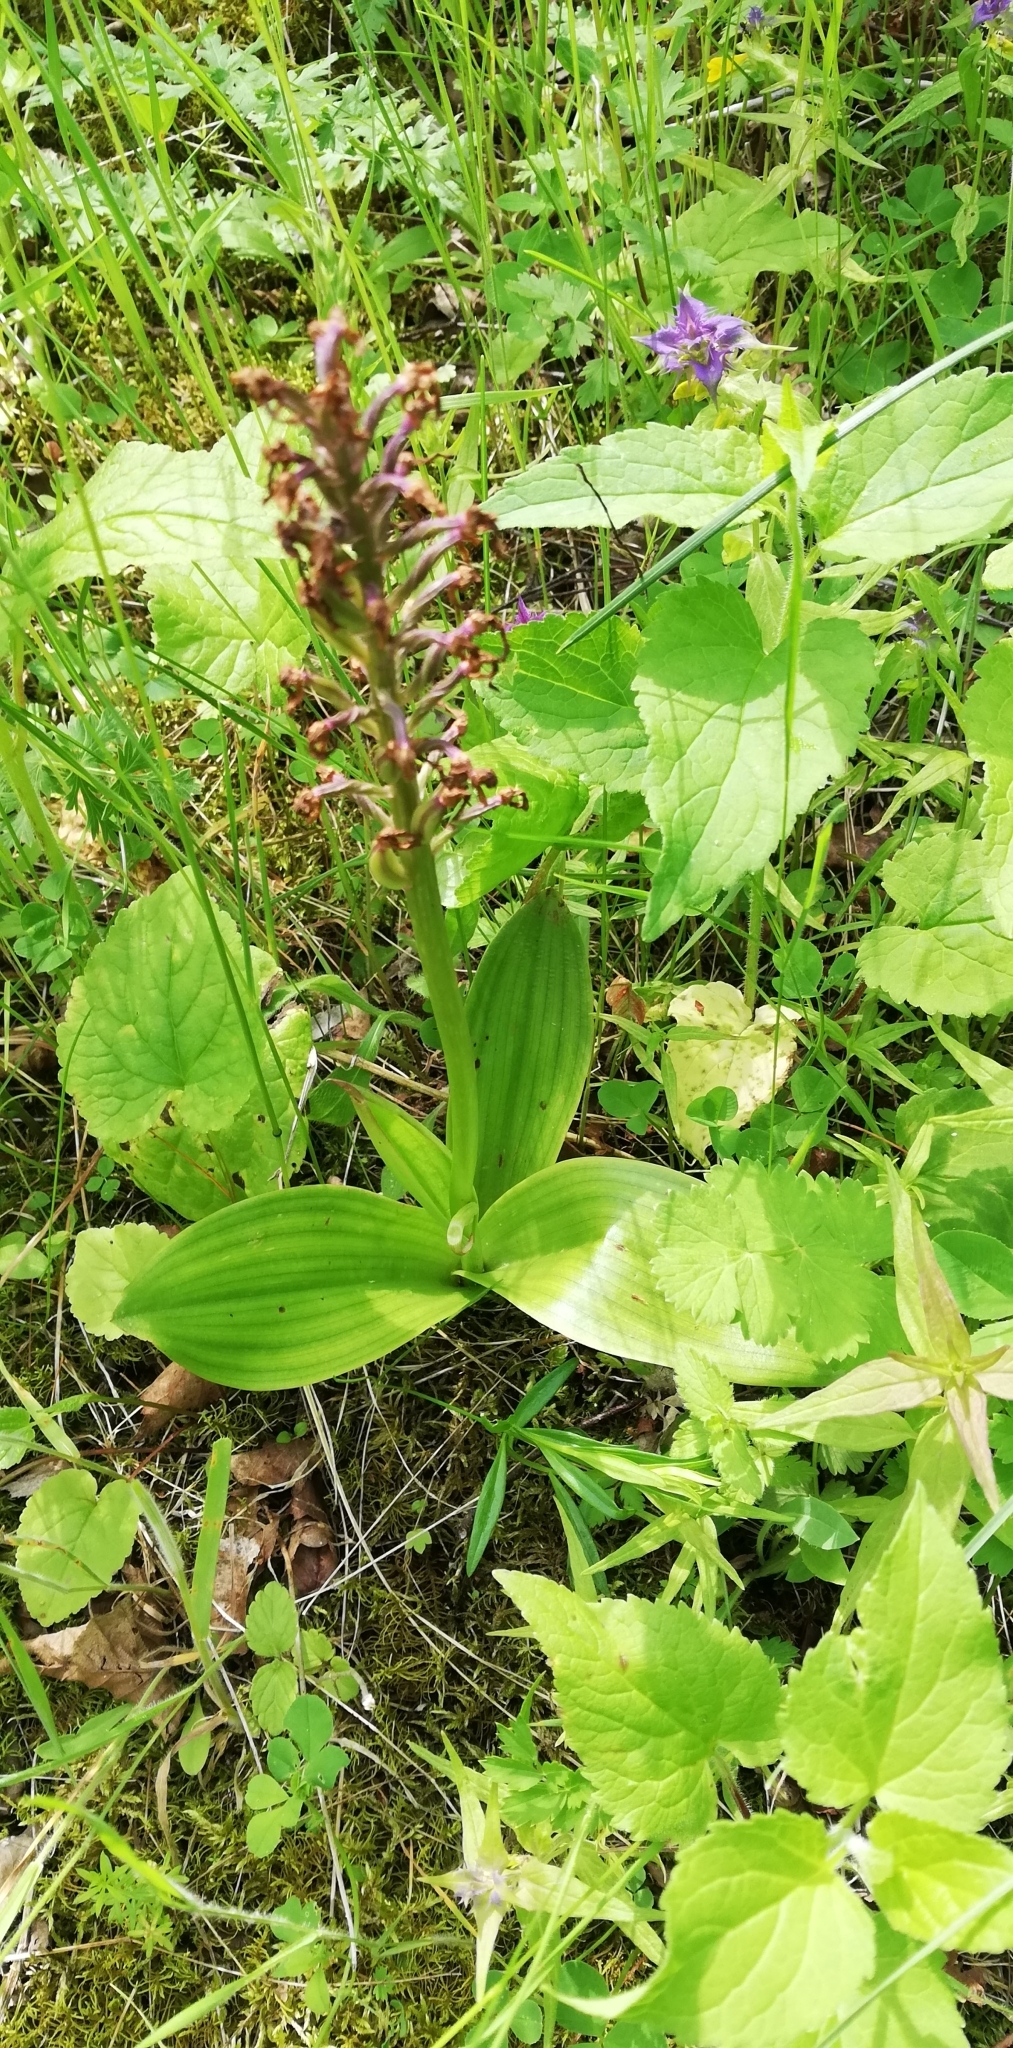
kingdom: Plantae
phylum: Tracheophyta
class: Liliopsida
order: Asparagales
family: Orchidaceae
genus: Orchis
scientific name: Orchis militaris
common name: Military orchid
